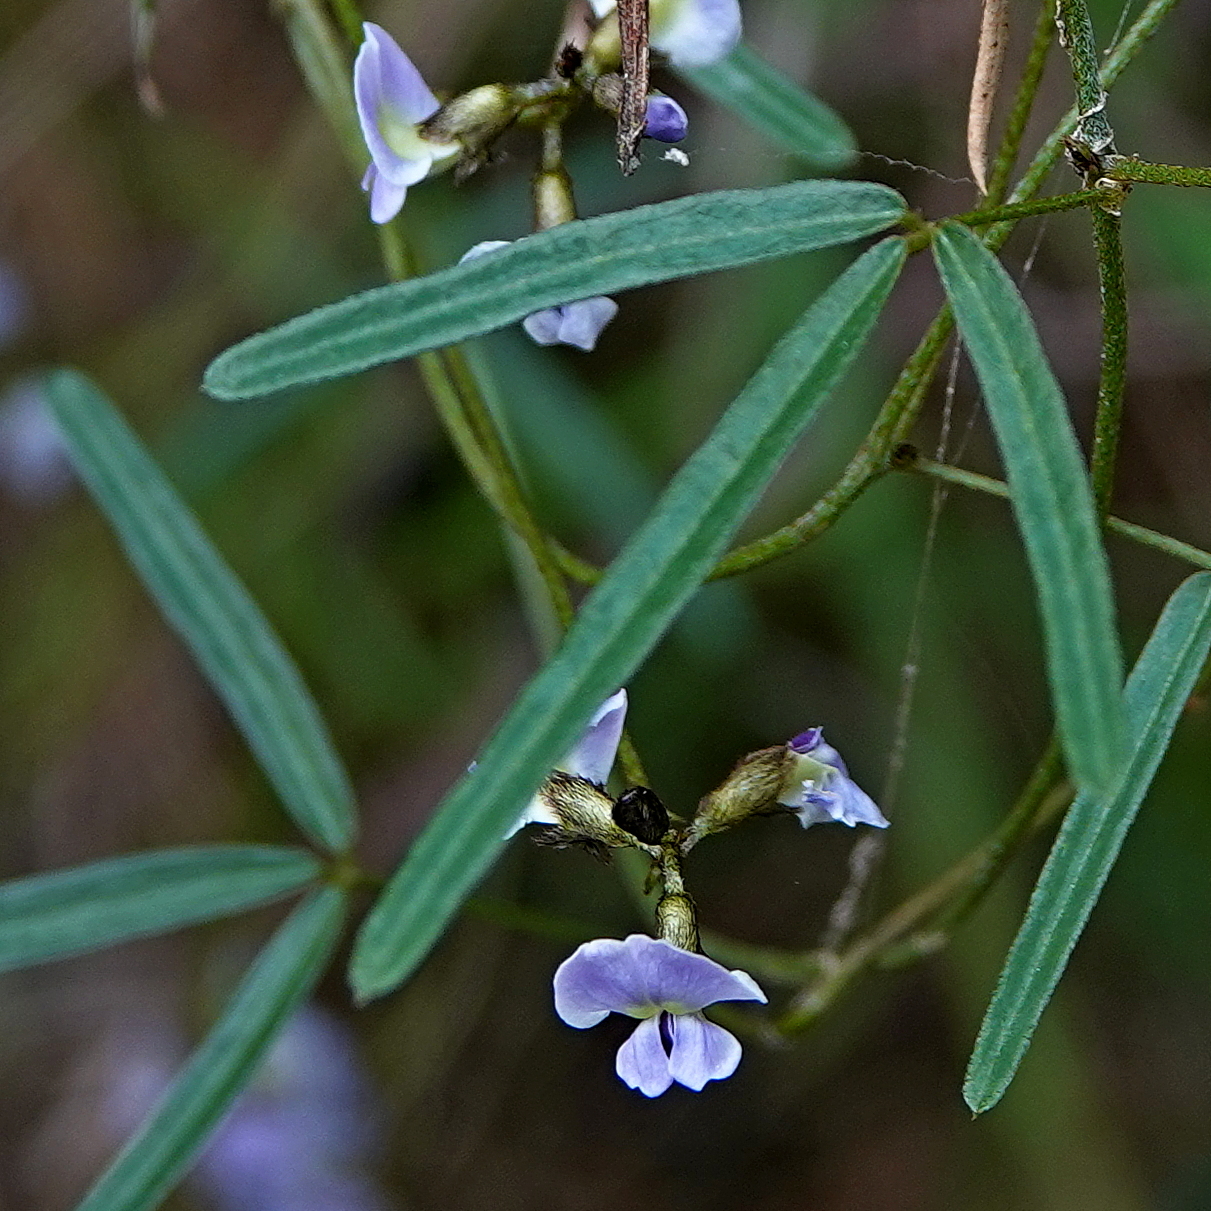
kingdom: Plantae
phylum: Tracheophyta
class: Magnoliopsida
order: Fabales
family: Fabaceae
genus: Glycine
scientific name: Glycine clandestina
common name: Twining glycine
